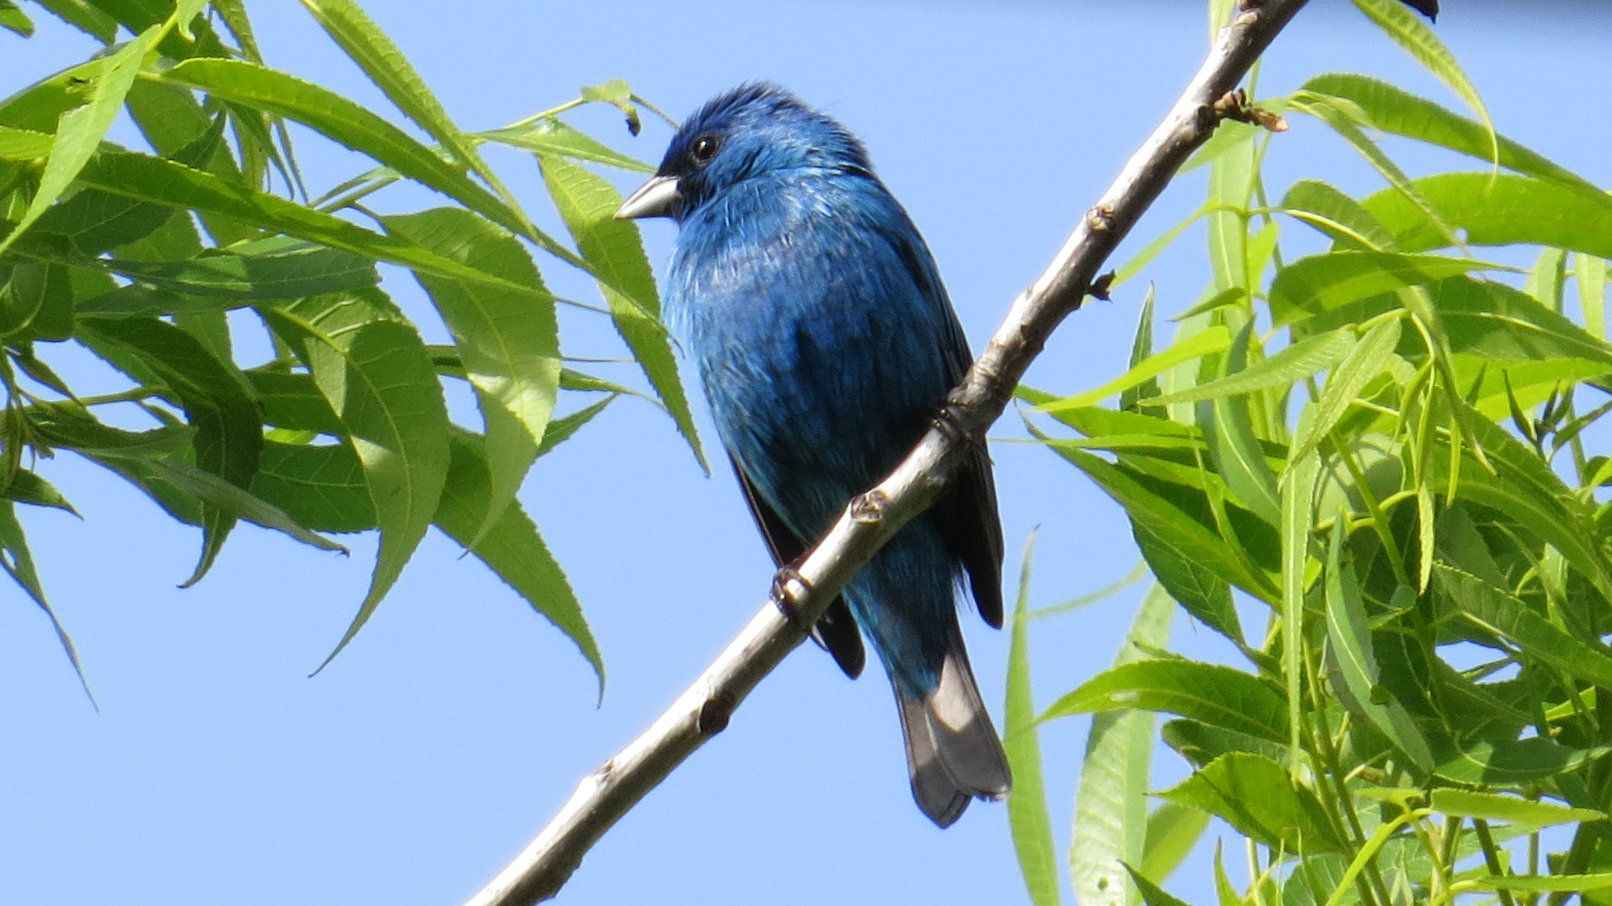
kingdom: Animalia
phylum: Chordata
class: Aves
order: Passeriformes
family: Cardinalidae
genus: Passerina
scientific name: Passerina cyanea
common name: Indigo bunting
